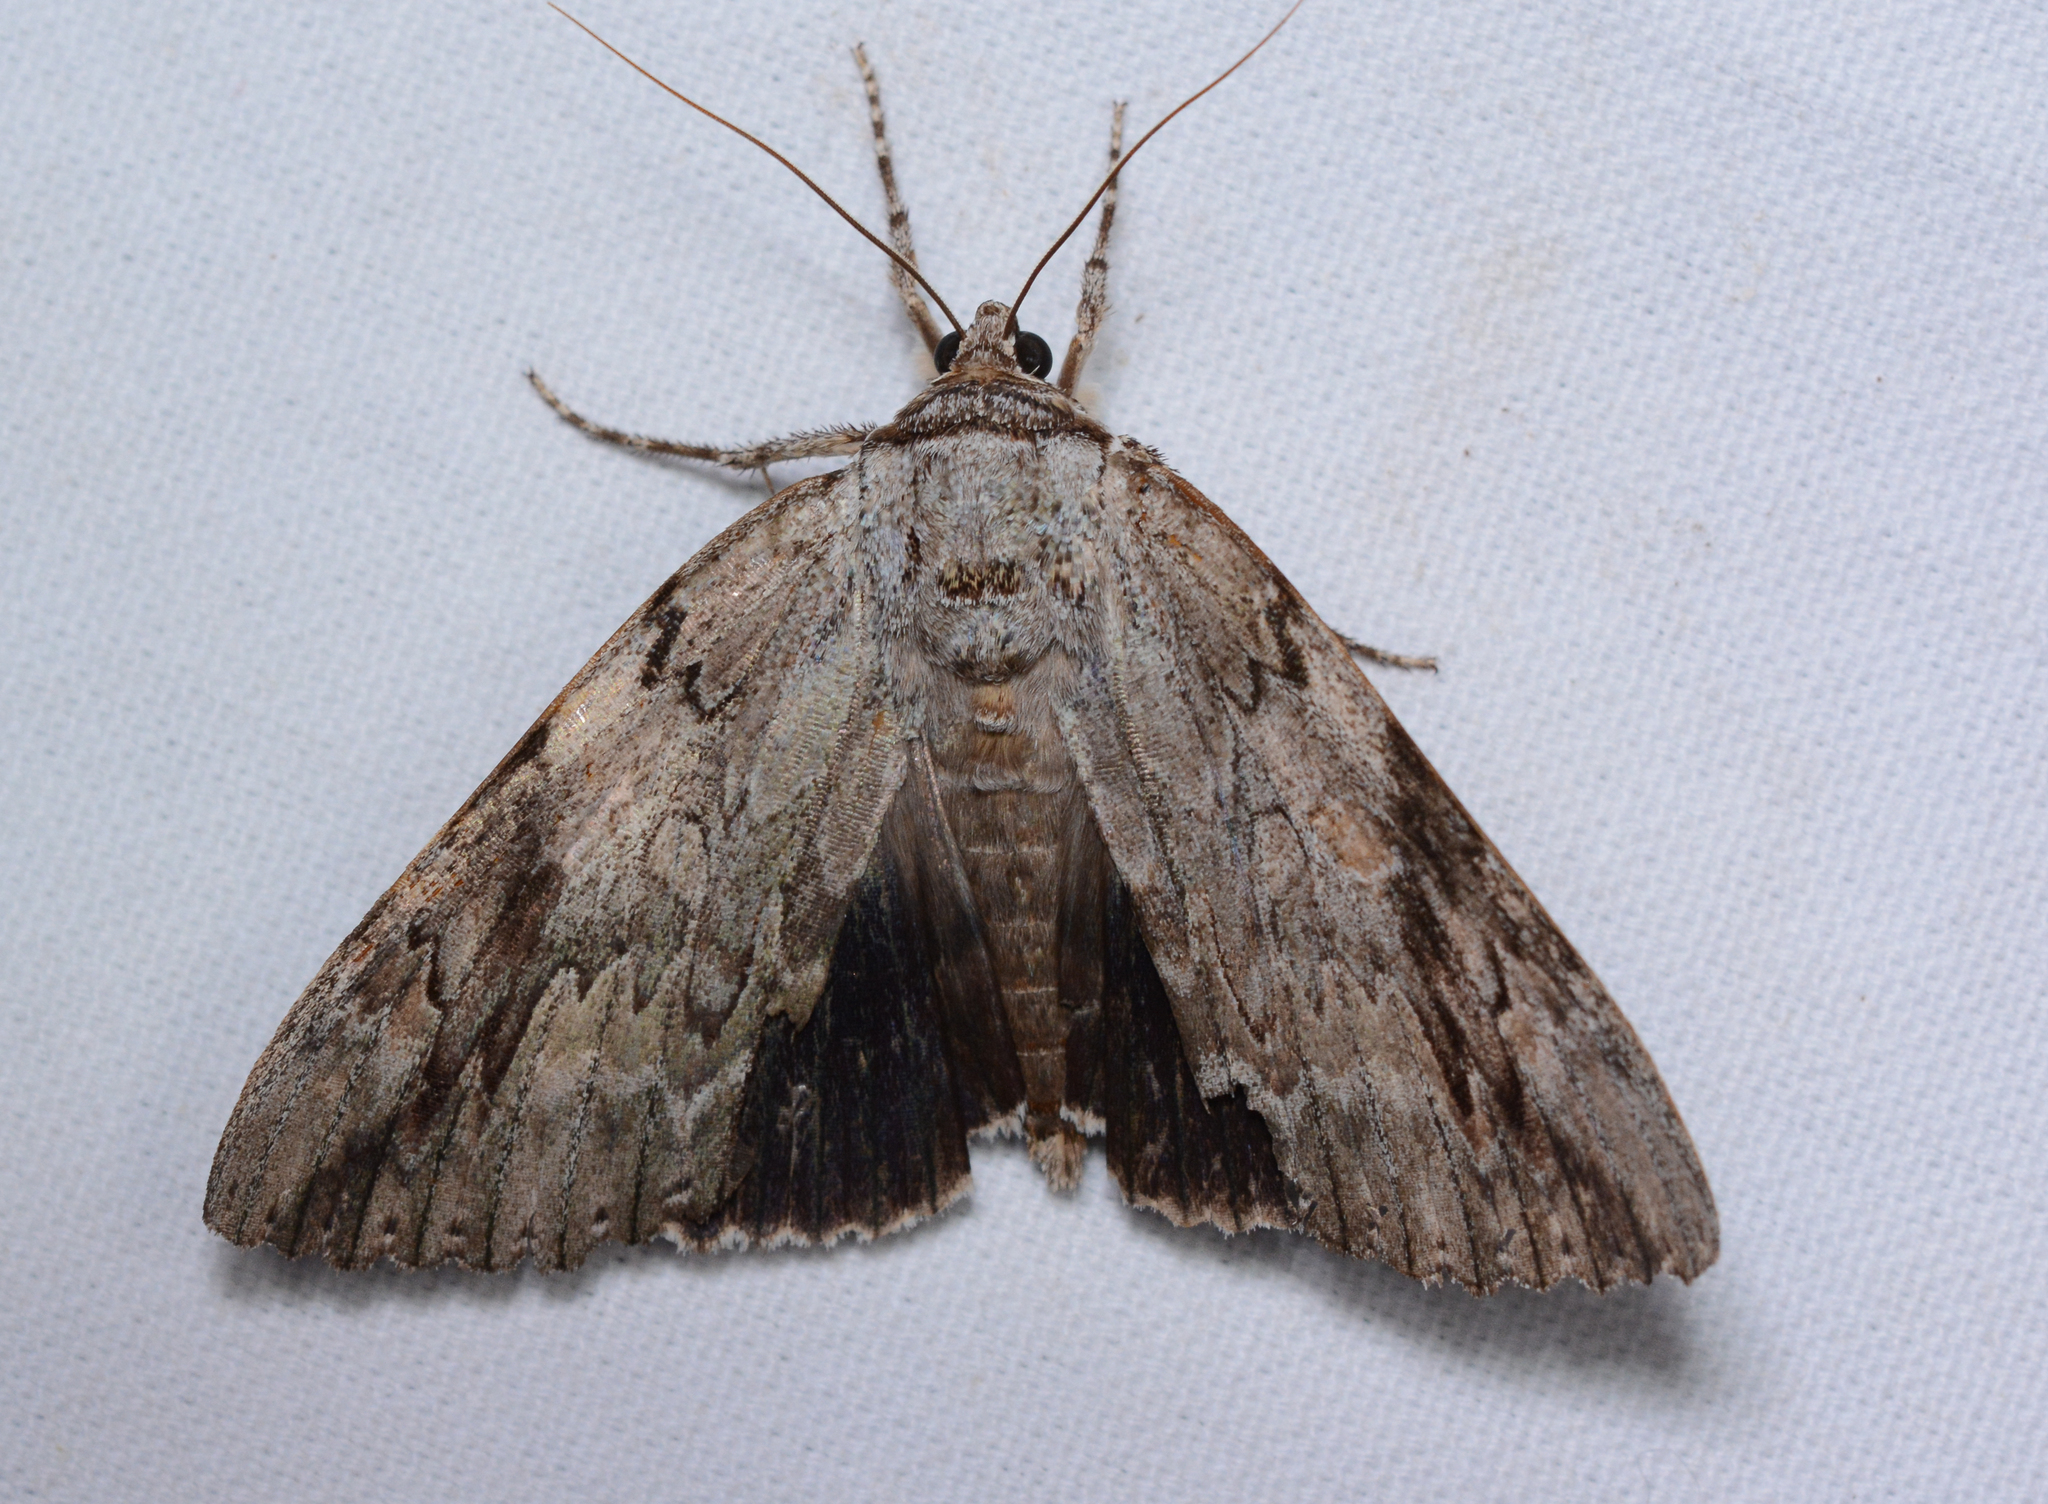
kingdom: Animalia
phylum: Arthropoda
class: Insecta
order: Lepidoptera
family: Erebidae
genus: Catocala
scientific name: Catocala maestosa
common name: Sad underwing
